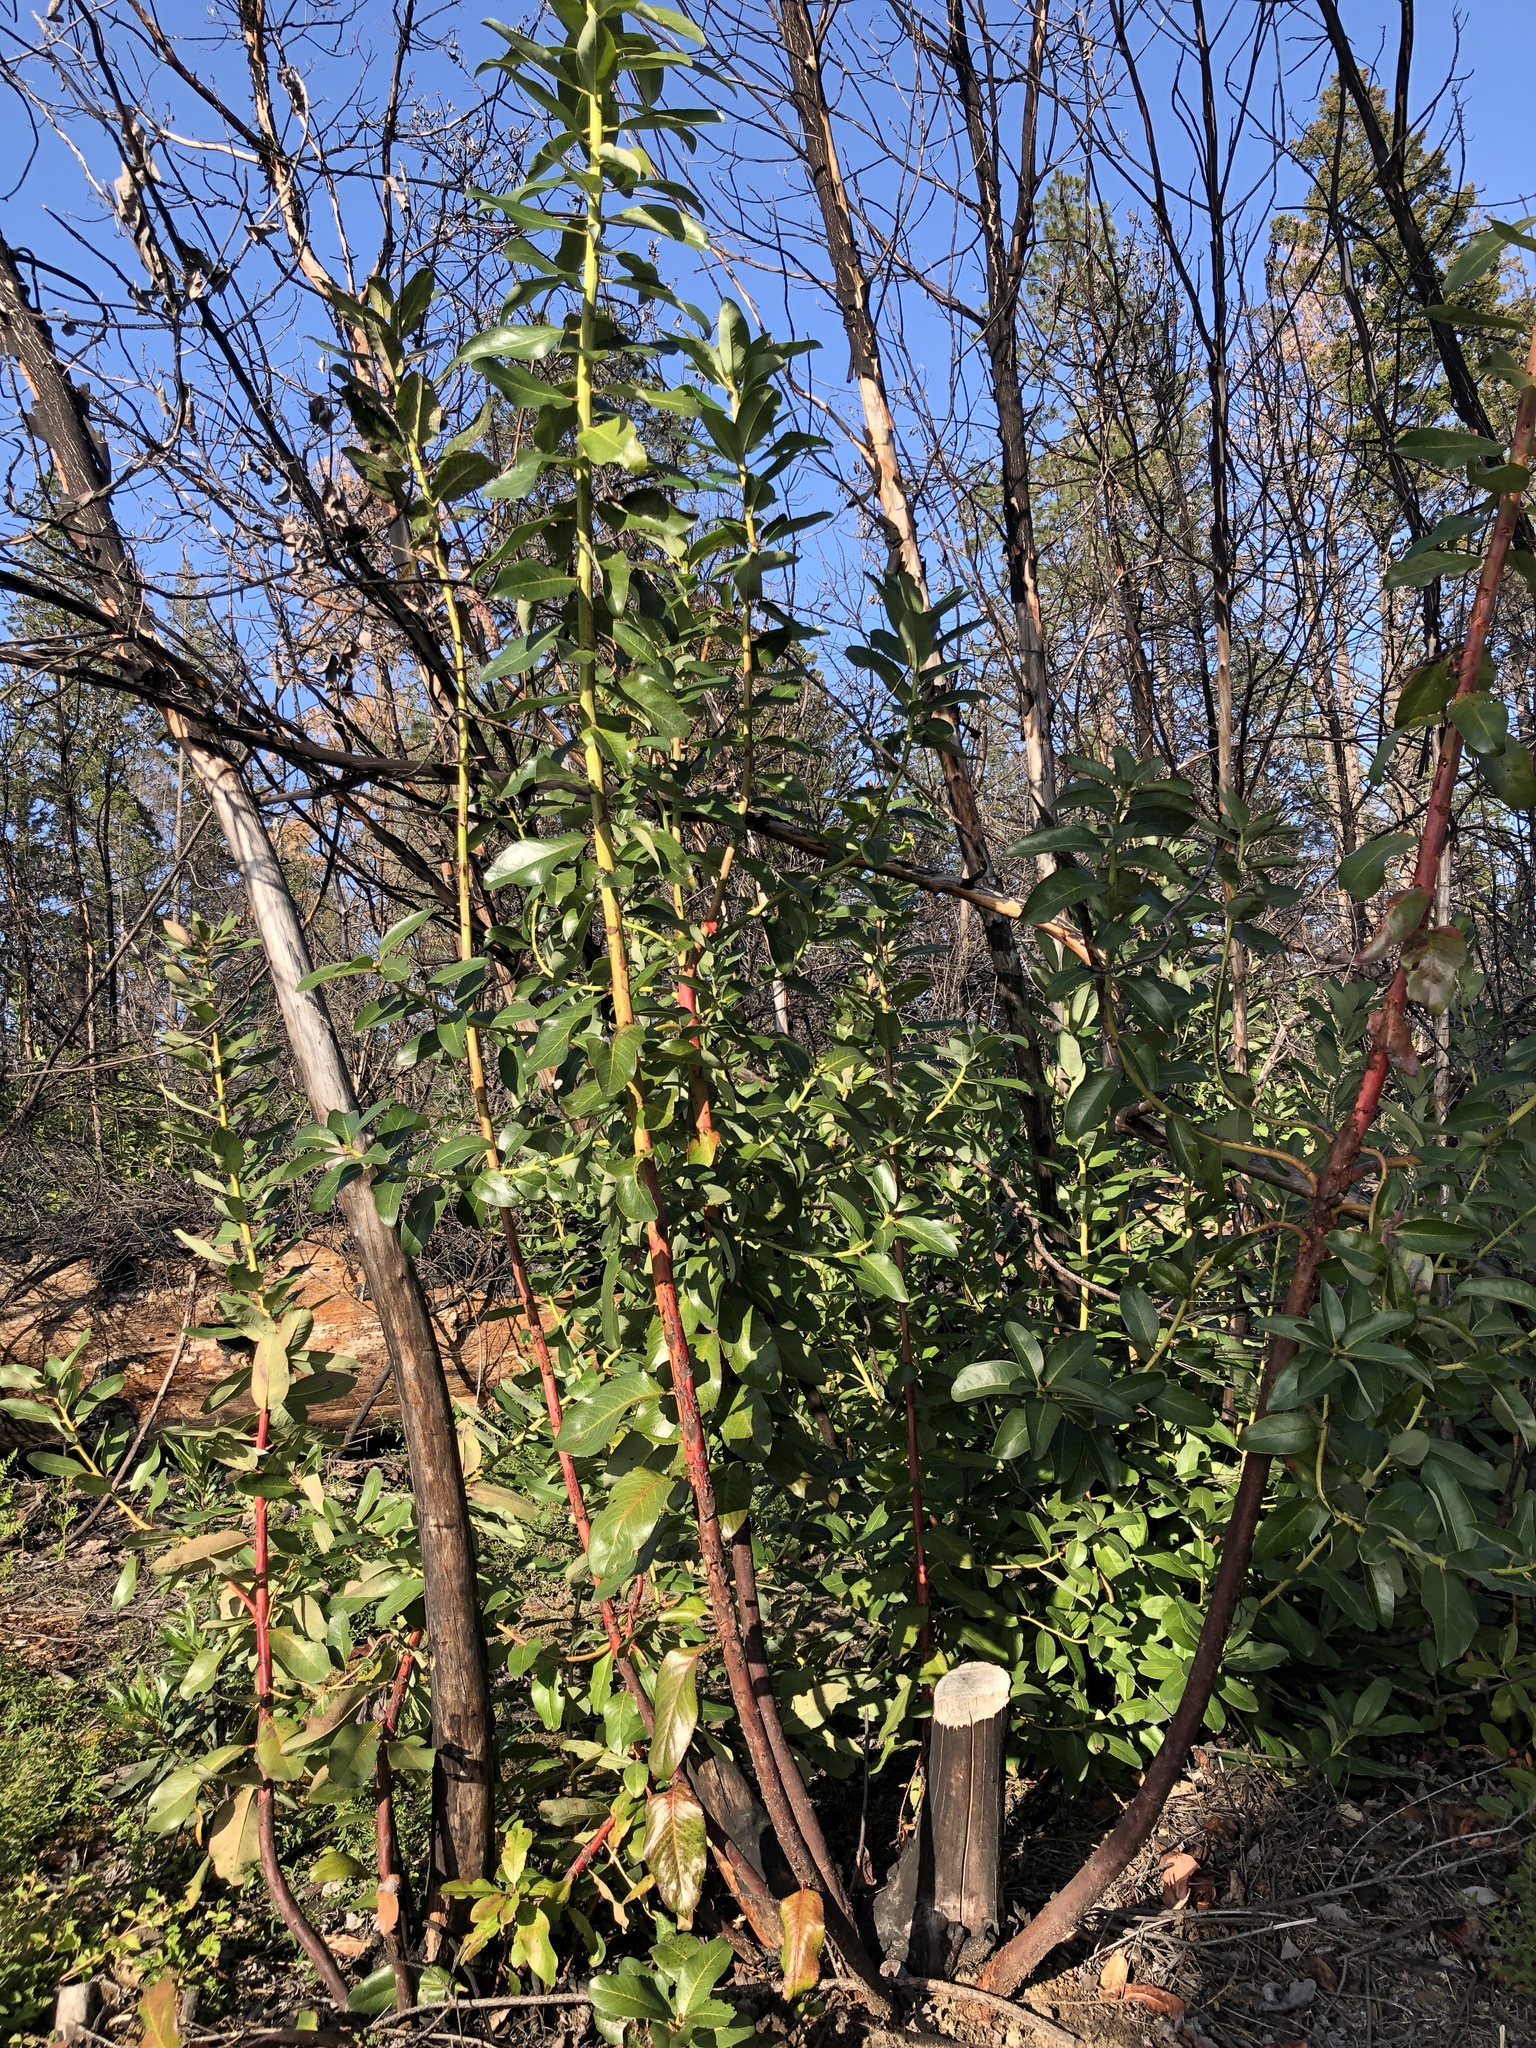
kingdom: Plantae
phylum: Tracheophyta
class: Magnoliopsida
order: Ericales
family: Ericaceae
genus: Arbutus
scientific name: Arbutus menziesii
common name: Pacific madrone
